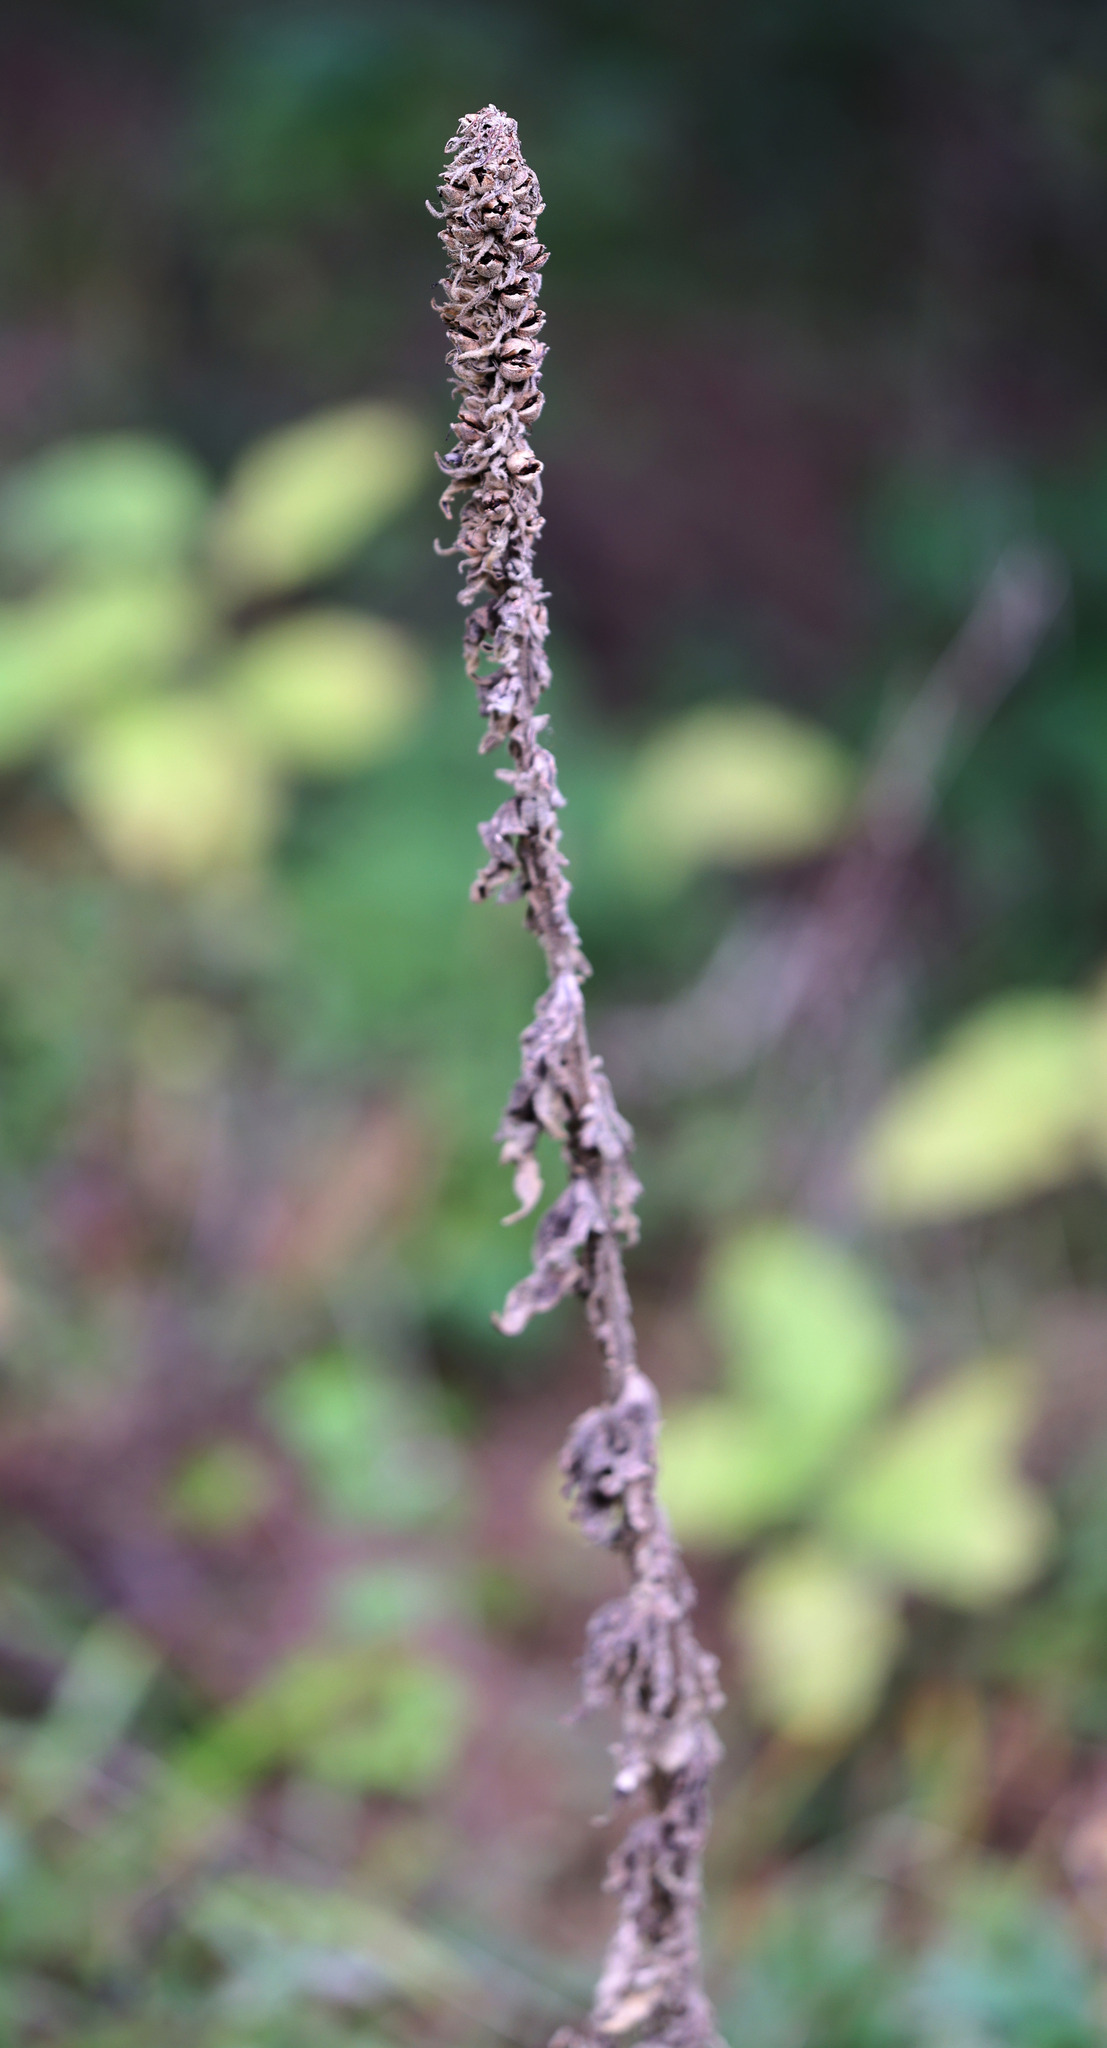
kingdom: Plantae
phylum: Tracheophyta
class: Magnoliopsida
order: Lamiales
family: Scrophulariaceae
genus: Verbascum
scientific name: Verbascum thapsus
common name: Common mullein
